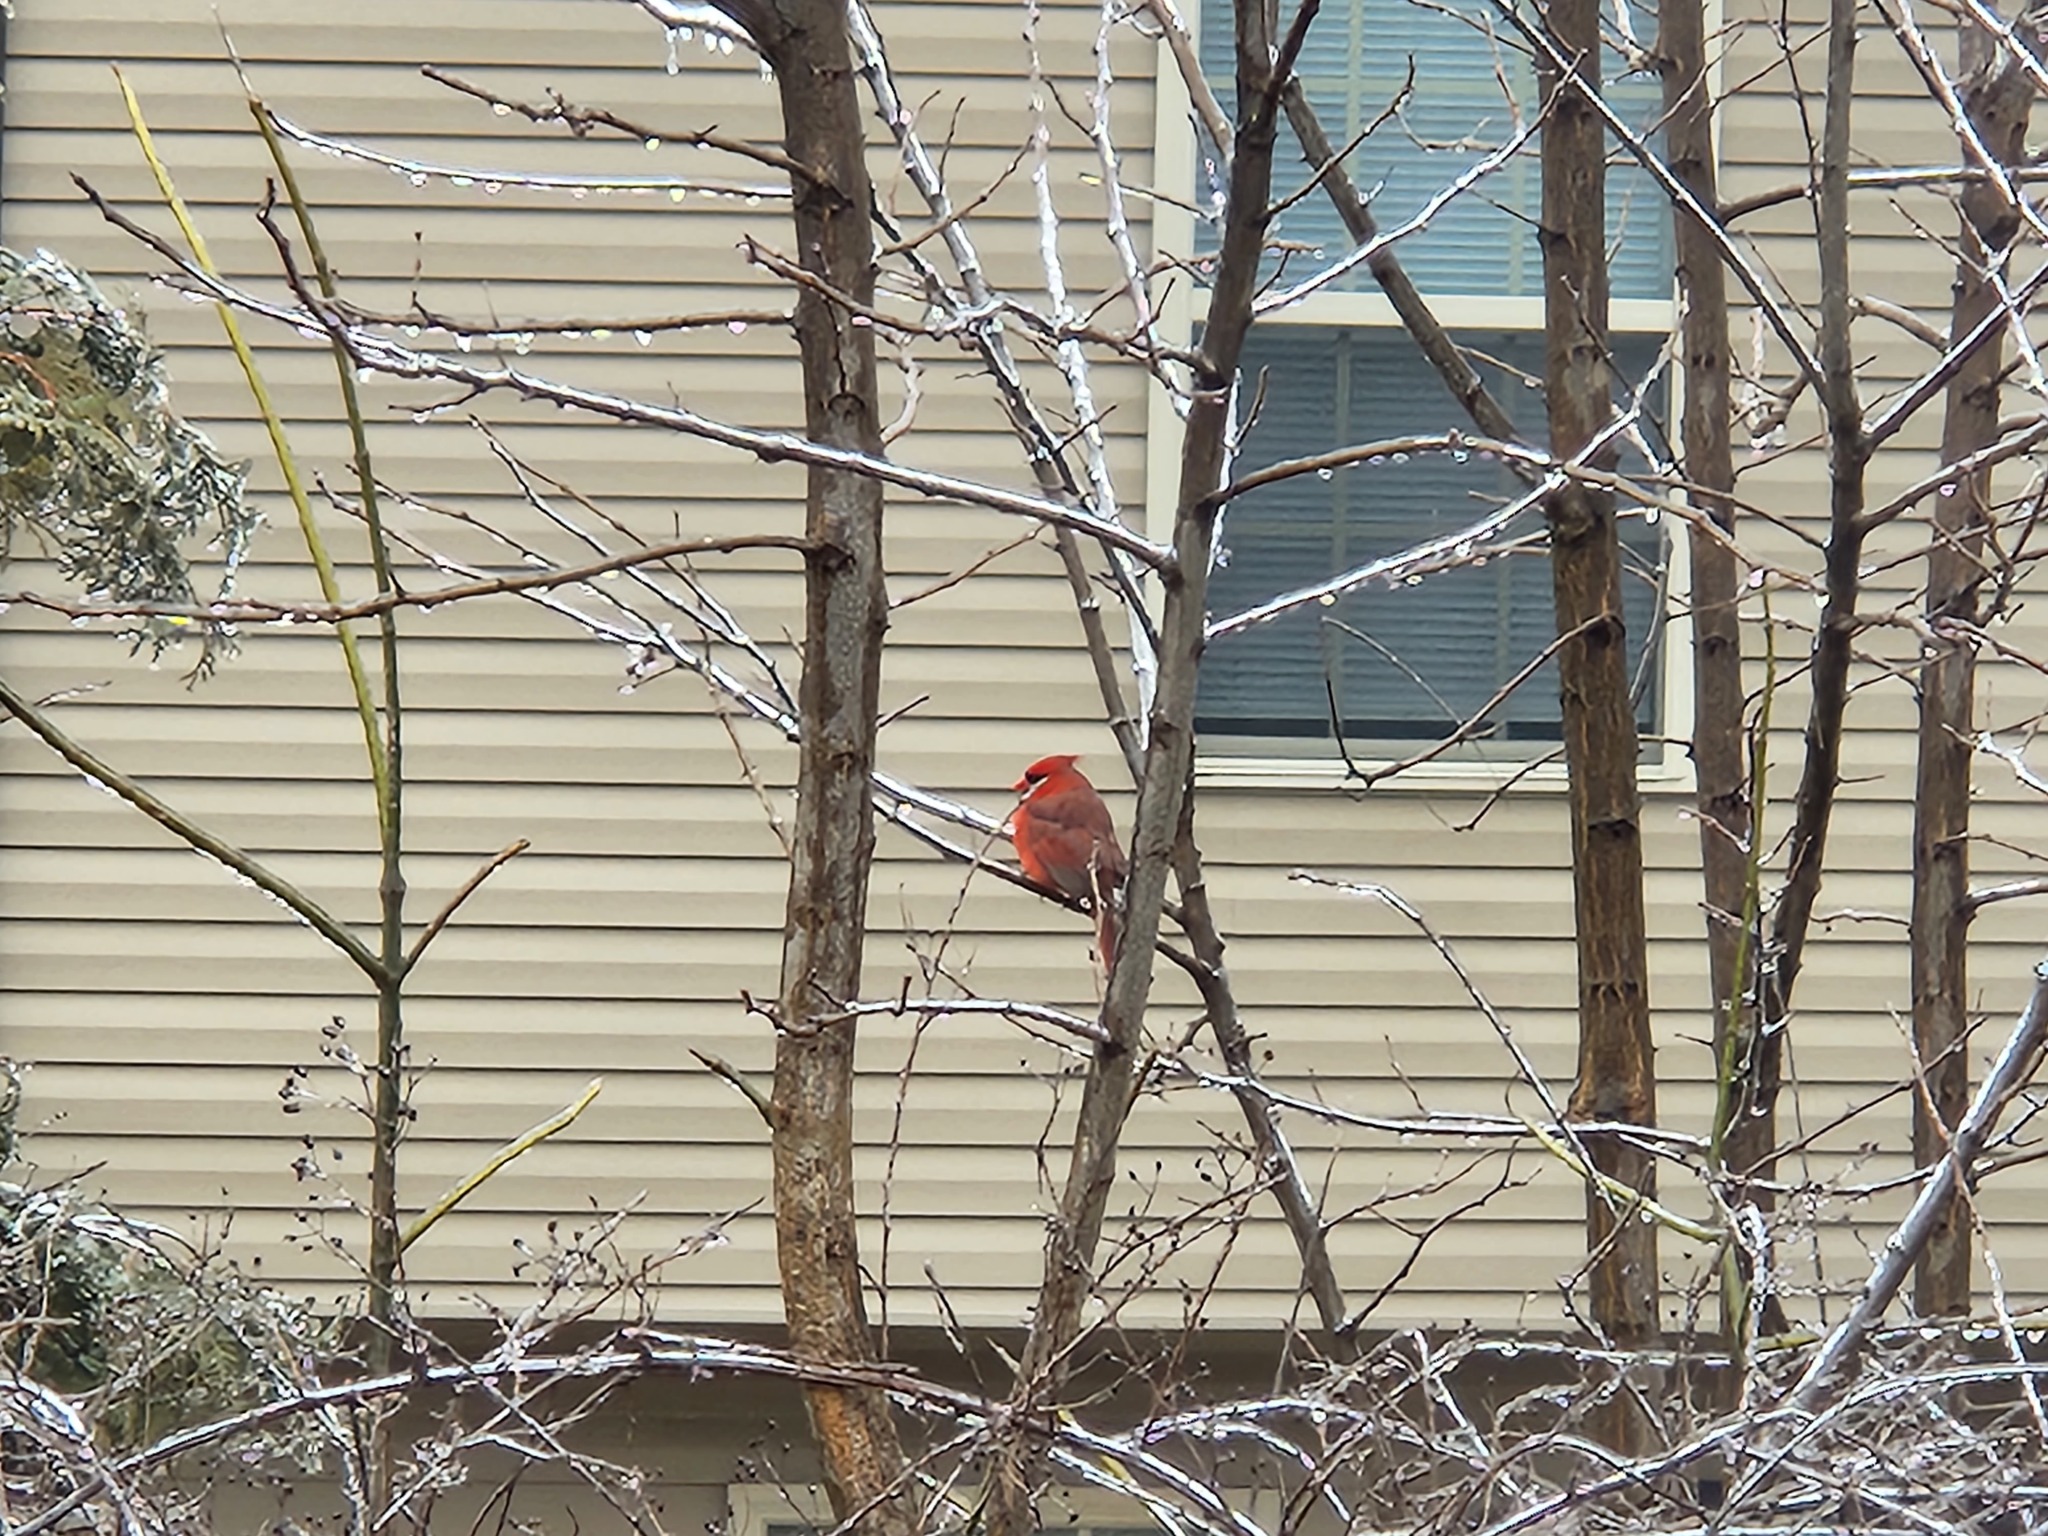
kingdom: Animalia
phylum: Chordata
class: Aves
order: Passeriformes
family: Cardinalidae
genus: Cardinalis
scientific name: Cardinalis cardinalis
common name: Northern cardinal
